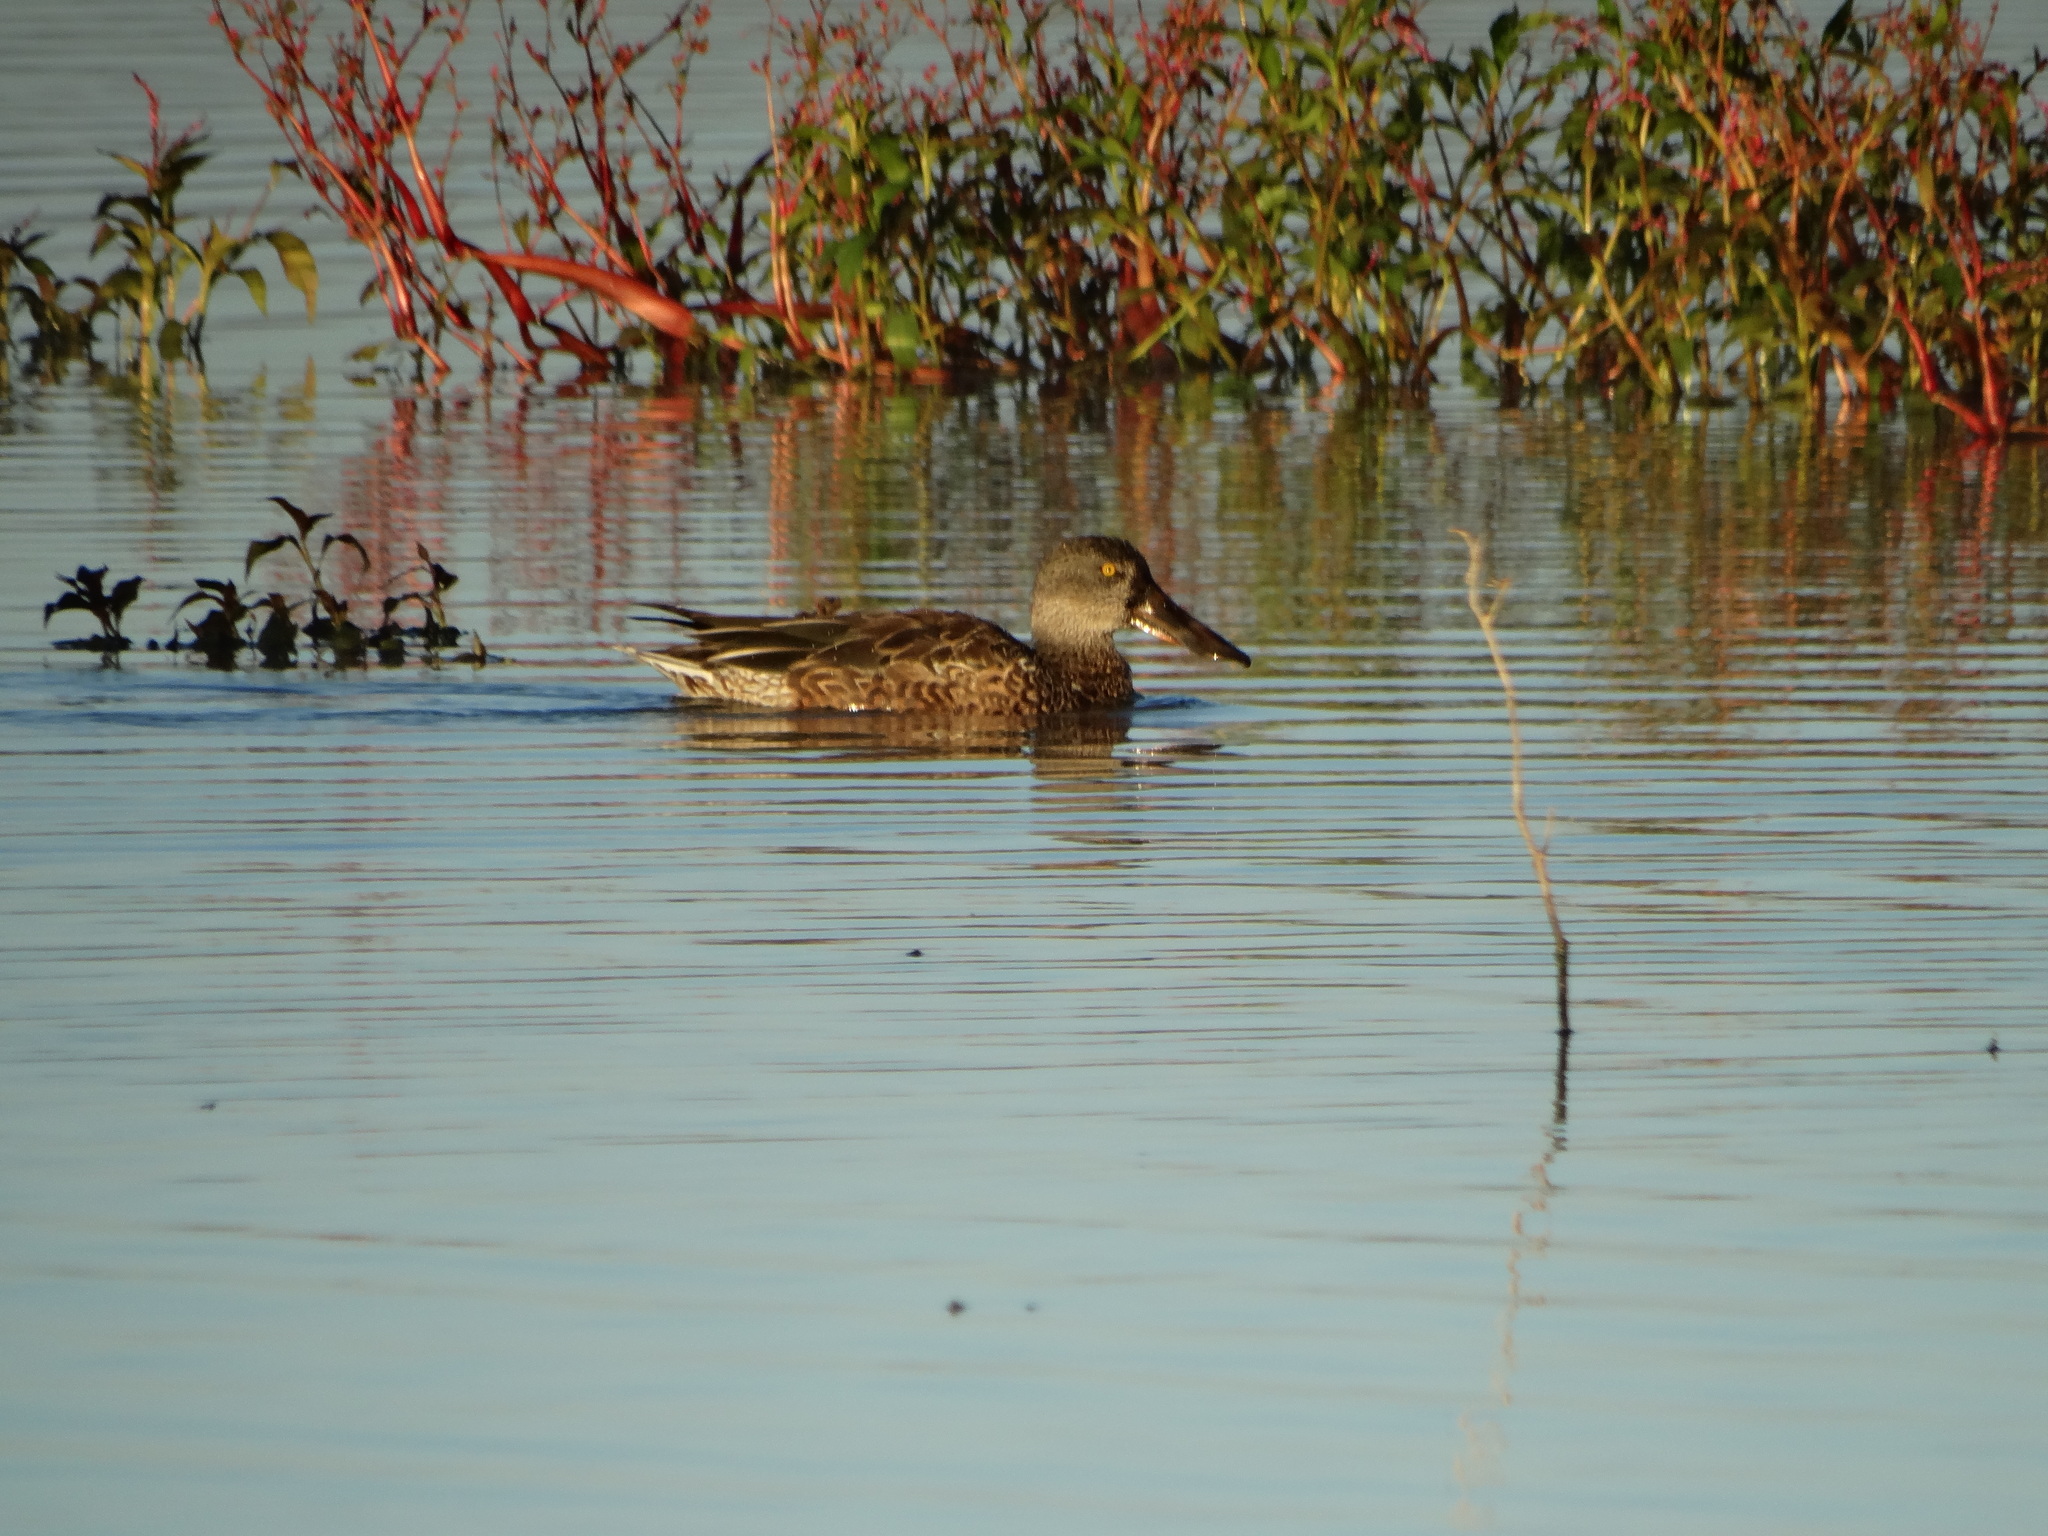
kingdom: Animalia
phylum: Chordata
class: Aves
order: Anseriformes
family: Anatidae
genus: Spatula
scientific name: Spatula clypeata
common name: Northern shoveler
